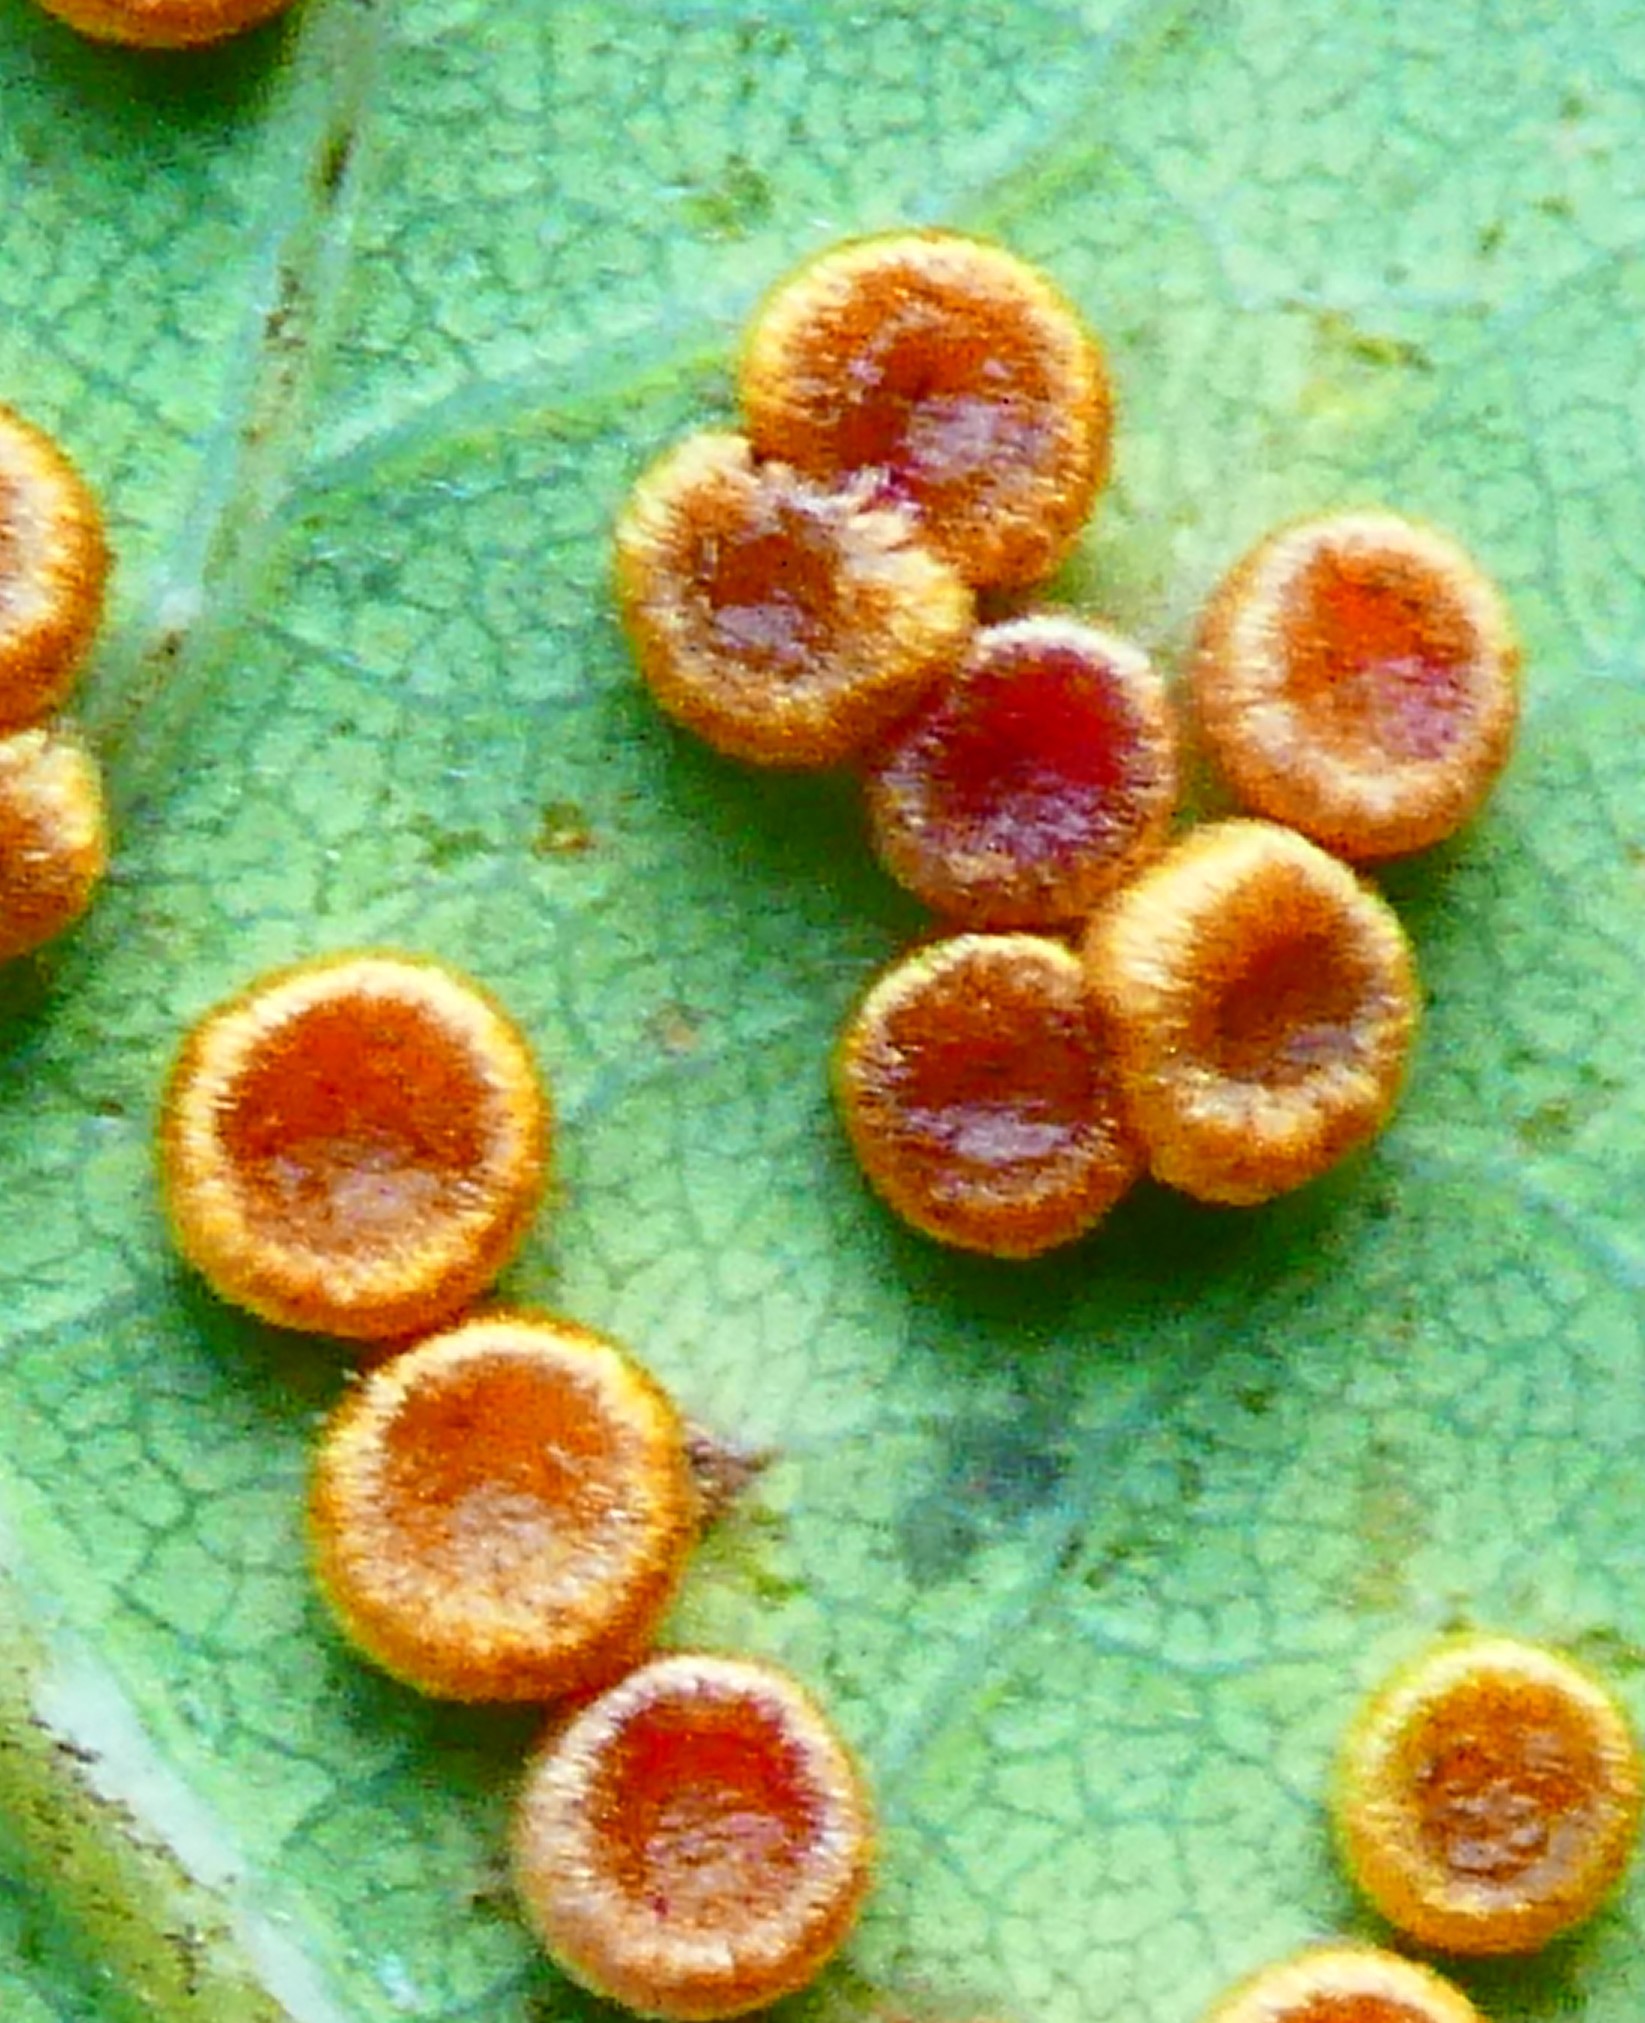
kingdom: Animalia
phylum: Arthropoda
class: Insecta
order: Hymenoptera
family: Cynipidae
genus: Neuroterus
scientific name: Neuroterus numismalis
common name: Silk-button spangle gall
